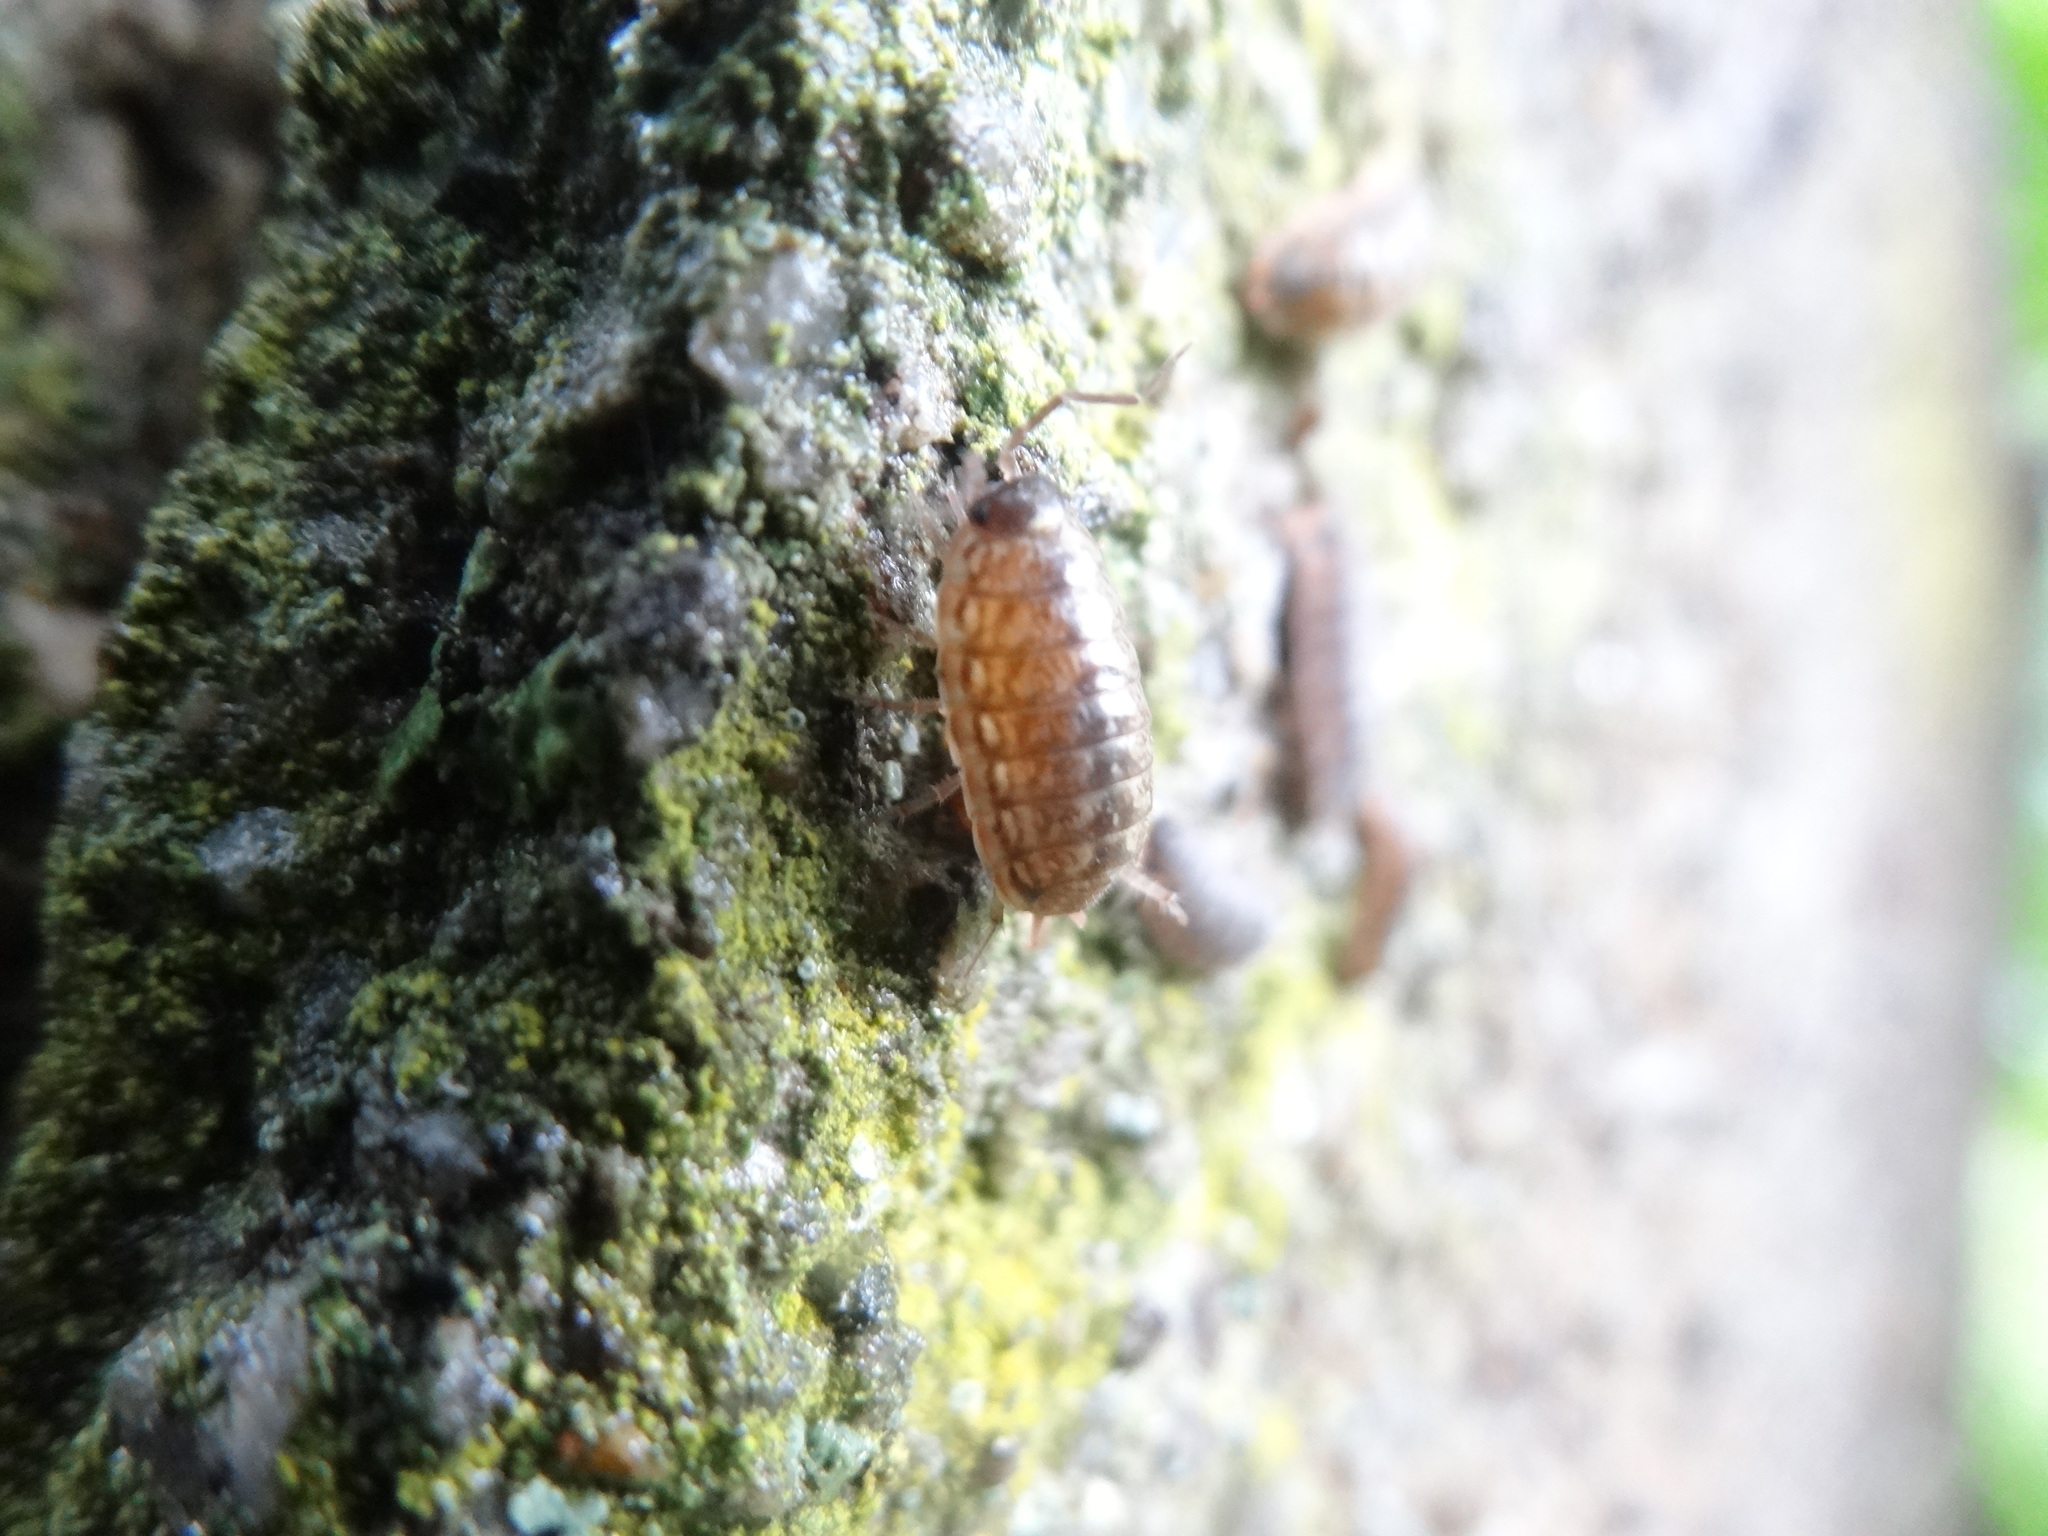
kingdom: Animalia
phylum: Arthropoda
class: Malacostraca
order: Isopoda
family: Philosciidae
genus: Philoscia
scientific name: Philoscia muscorum
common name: Common striped woodlouse
